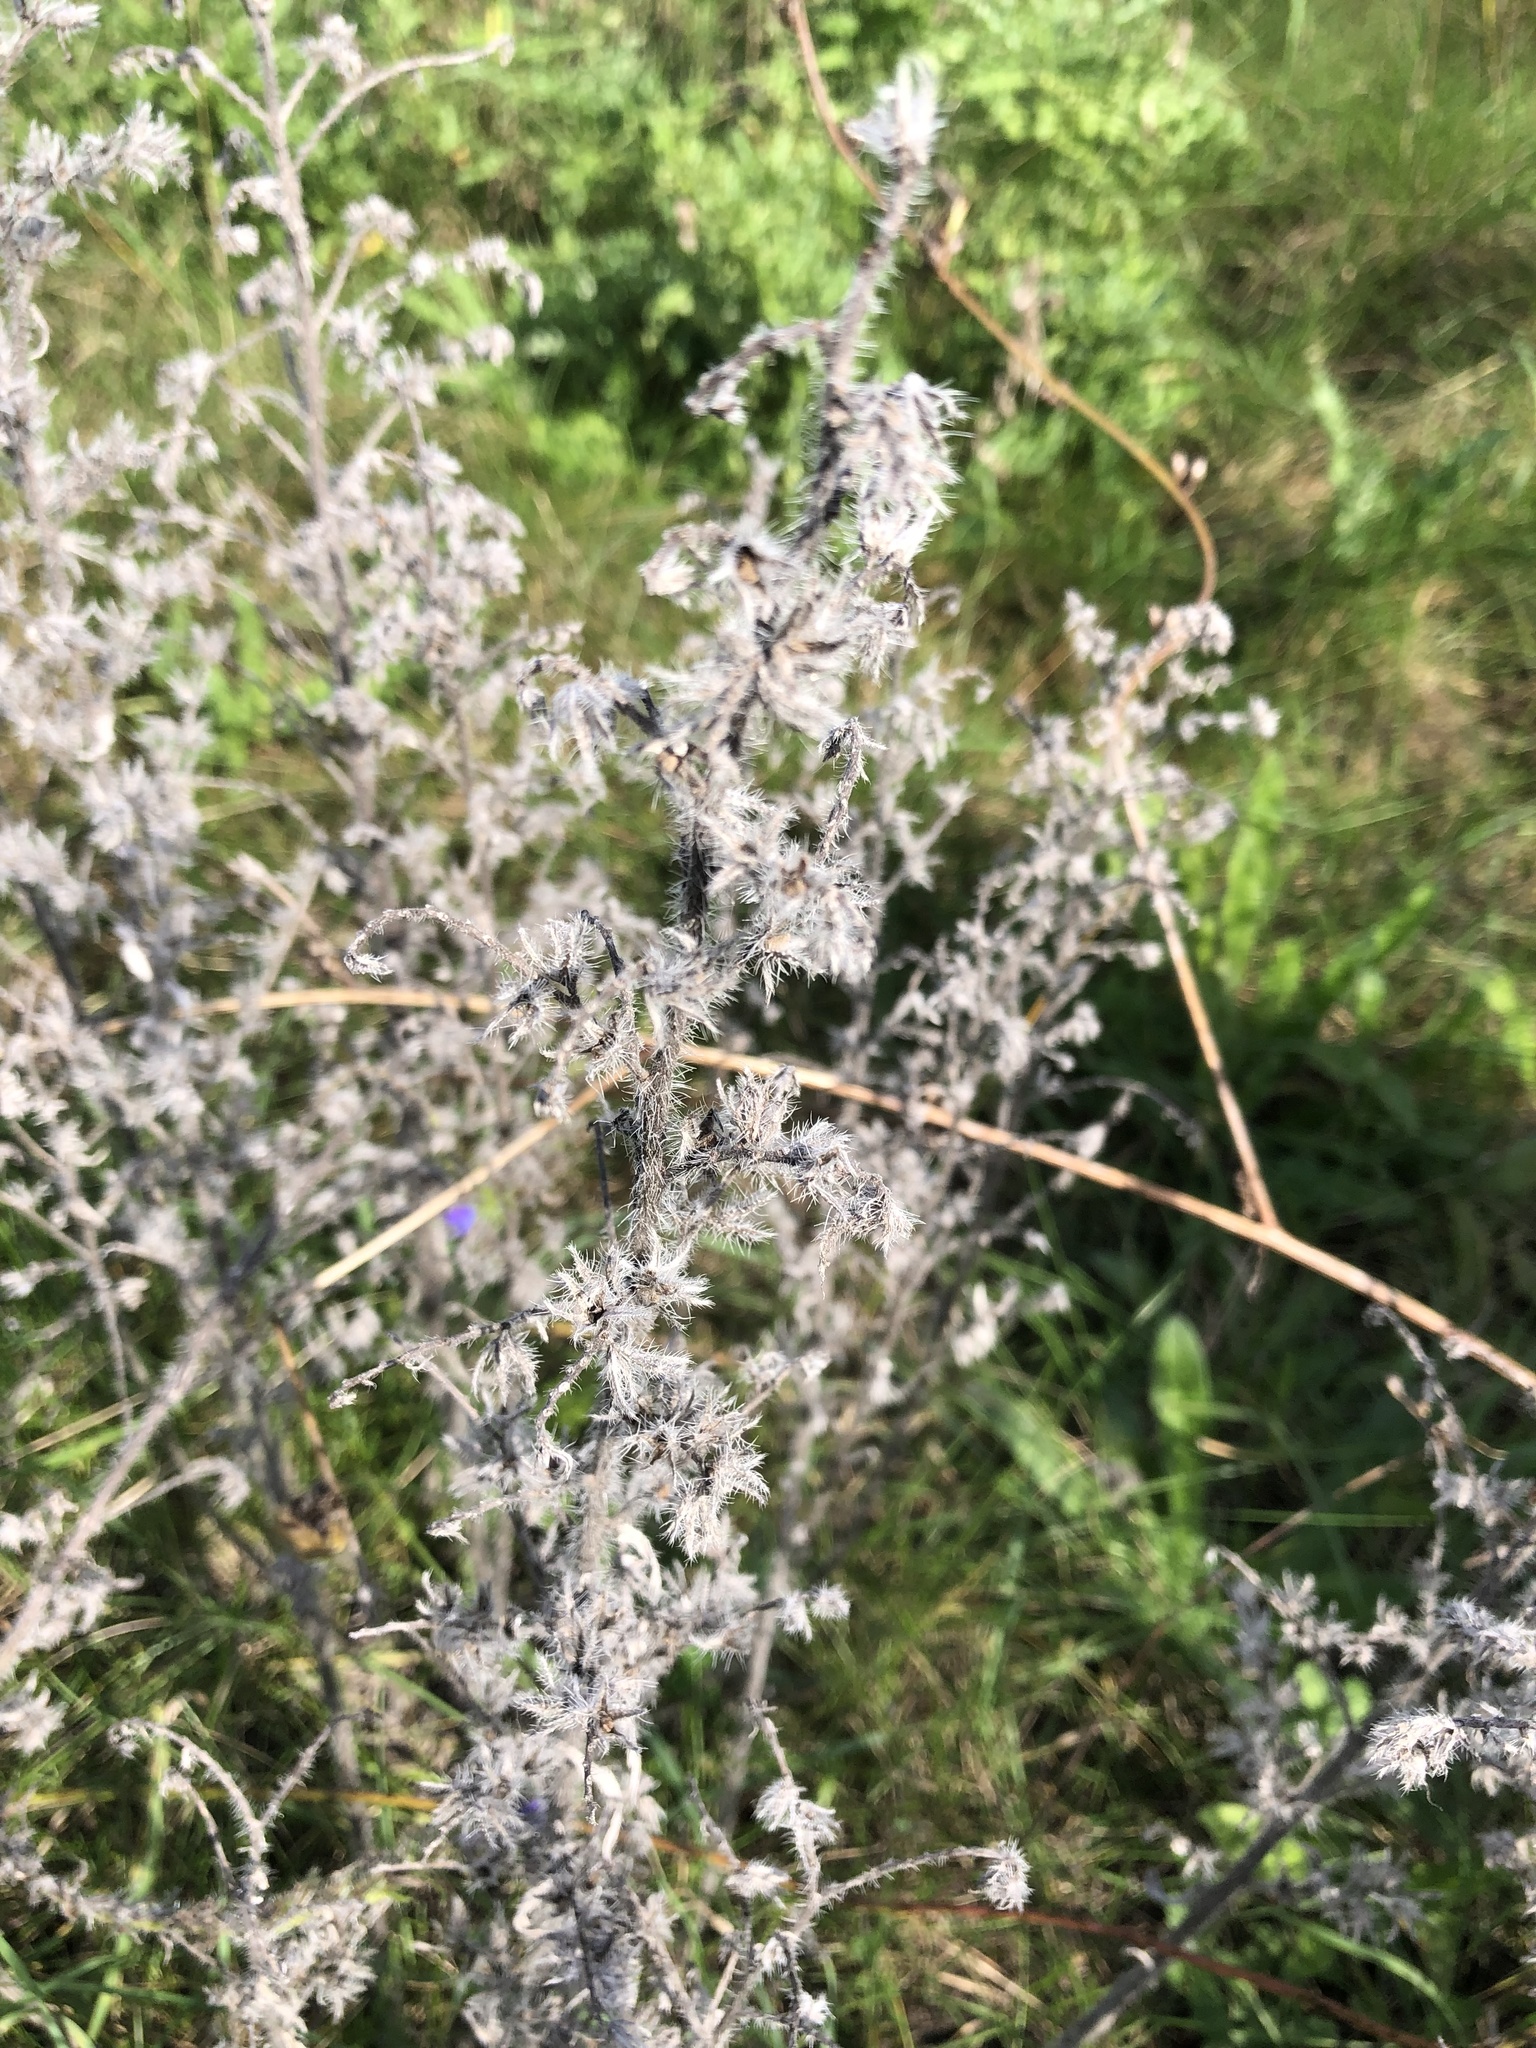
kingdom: Plantae
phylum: Tracheophyta
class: Magnoliopsida
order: Boraginales
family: Boraginaceae
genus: Echium
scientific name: Echium vulgare
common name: Common viper's bugloss
